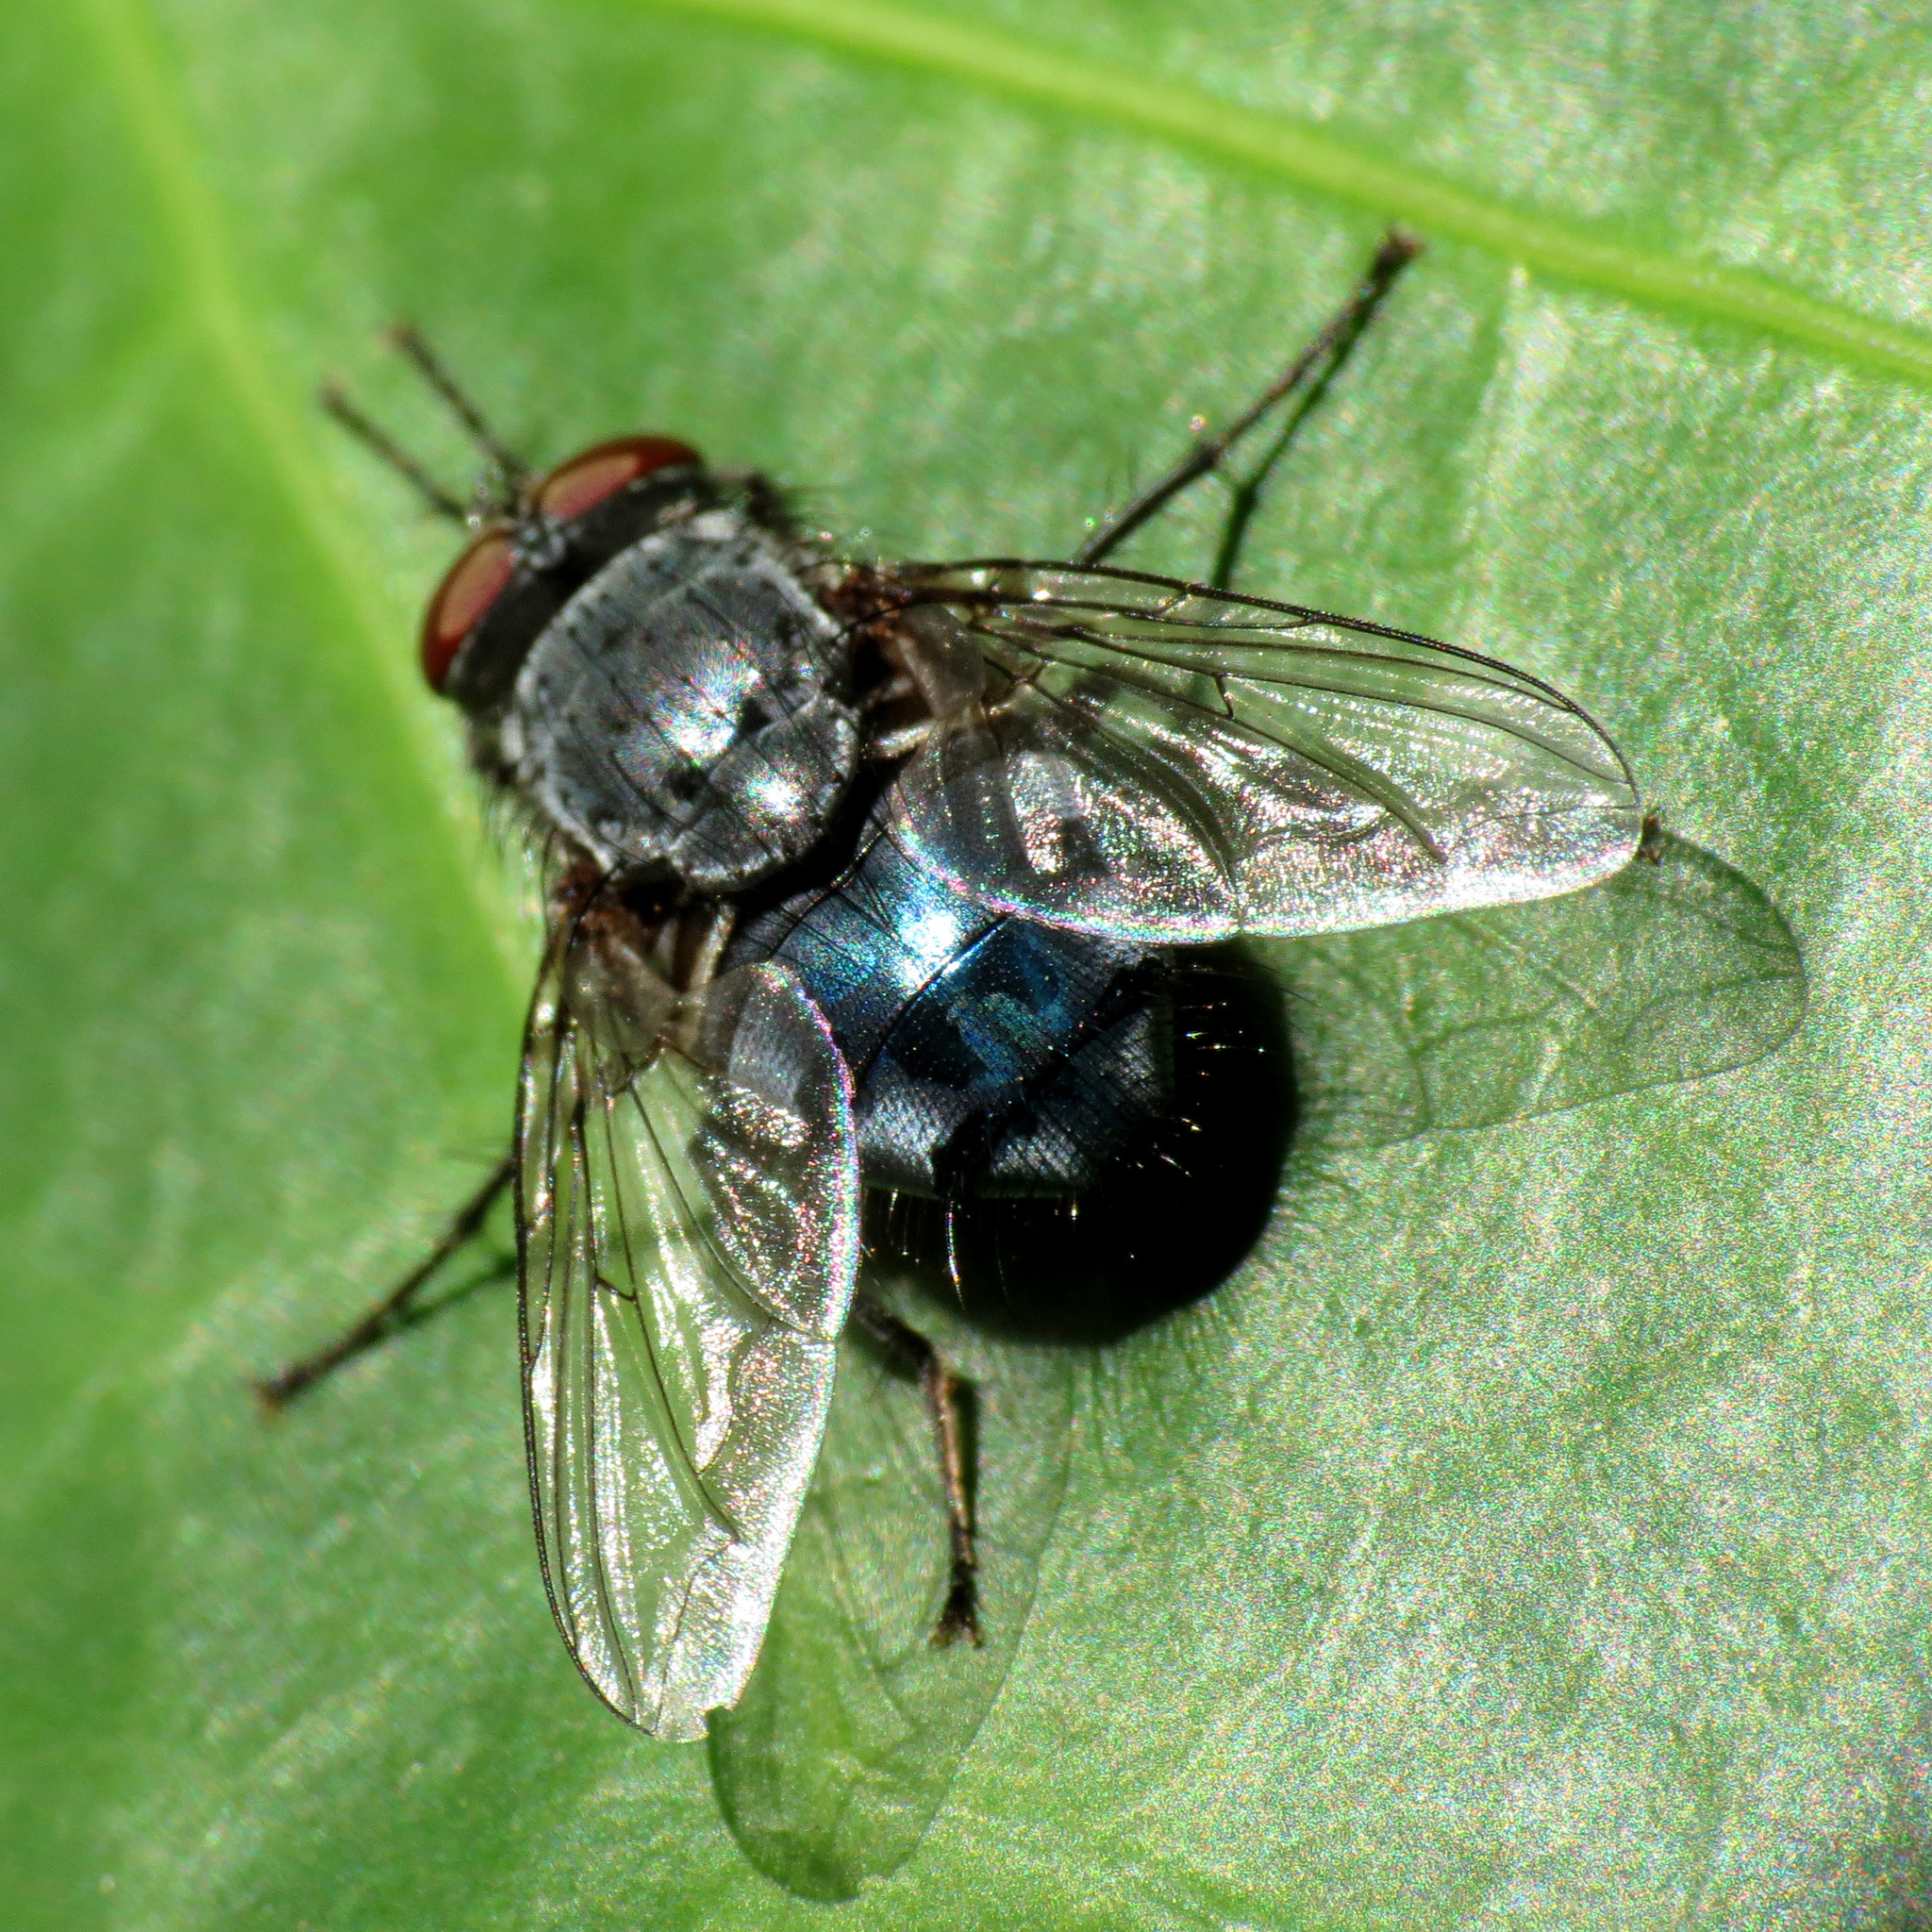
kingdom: Animalia
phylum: Arthropoda
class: Insecta
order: Diptera
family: Calliphoridae
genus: Calliphora
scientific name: Calliphora vicina
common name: Common blow flie
